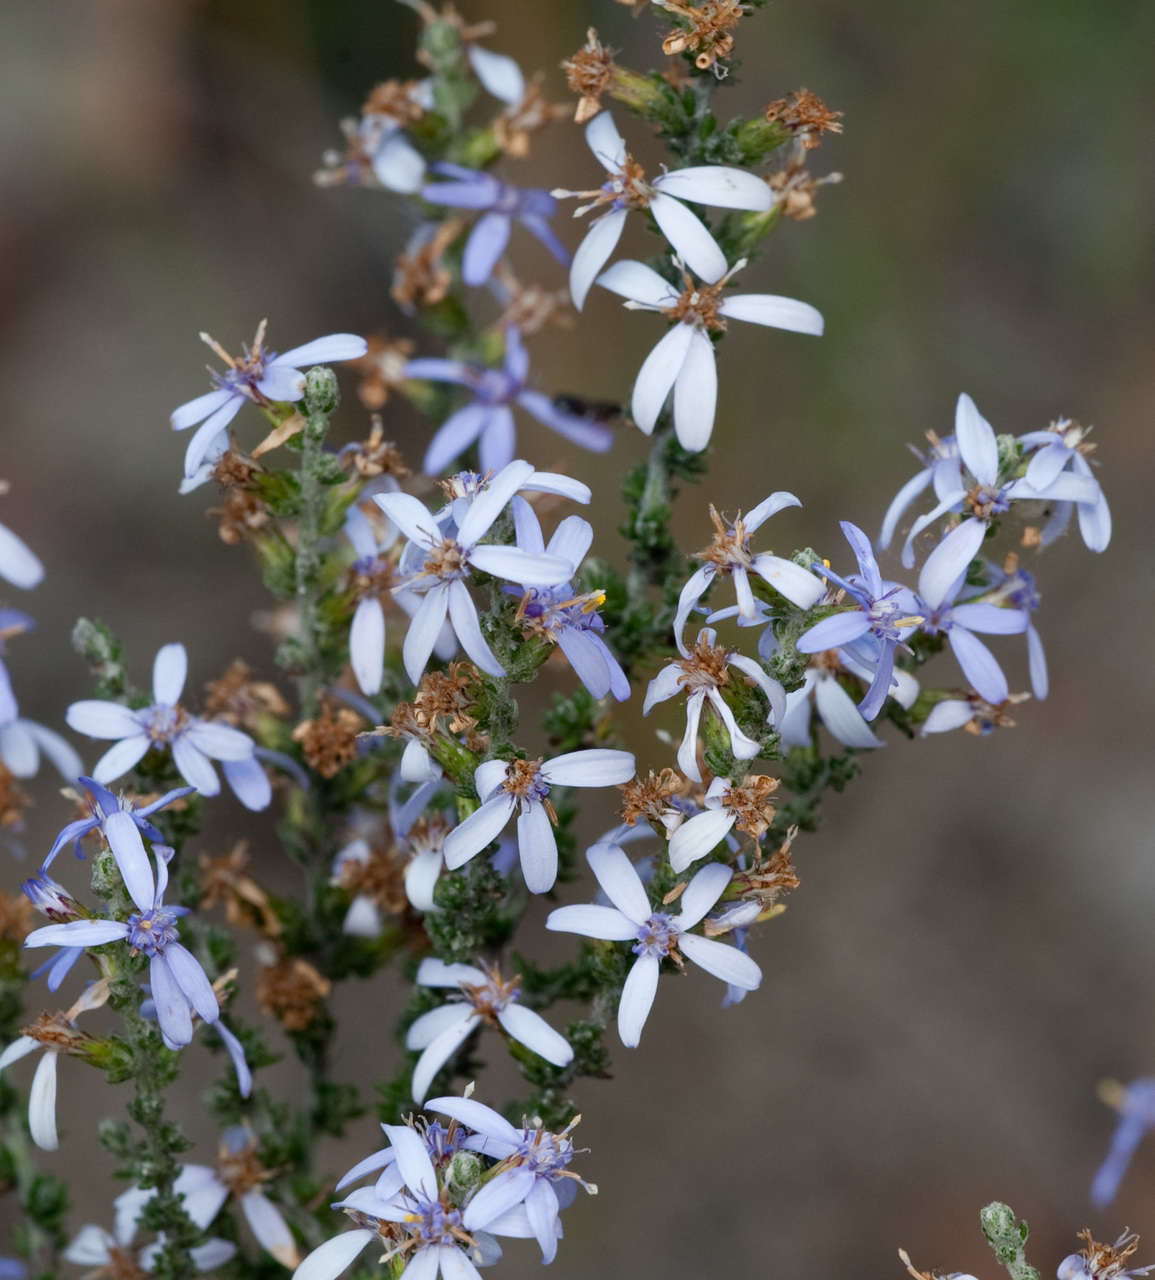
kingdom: Plantae
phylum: Tracheophyta
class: Magnoliopsida
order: Asterales
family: Asteraceae
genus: Olearia
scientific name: Olearia lanuginosa
